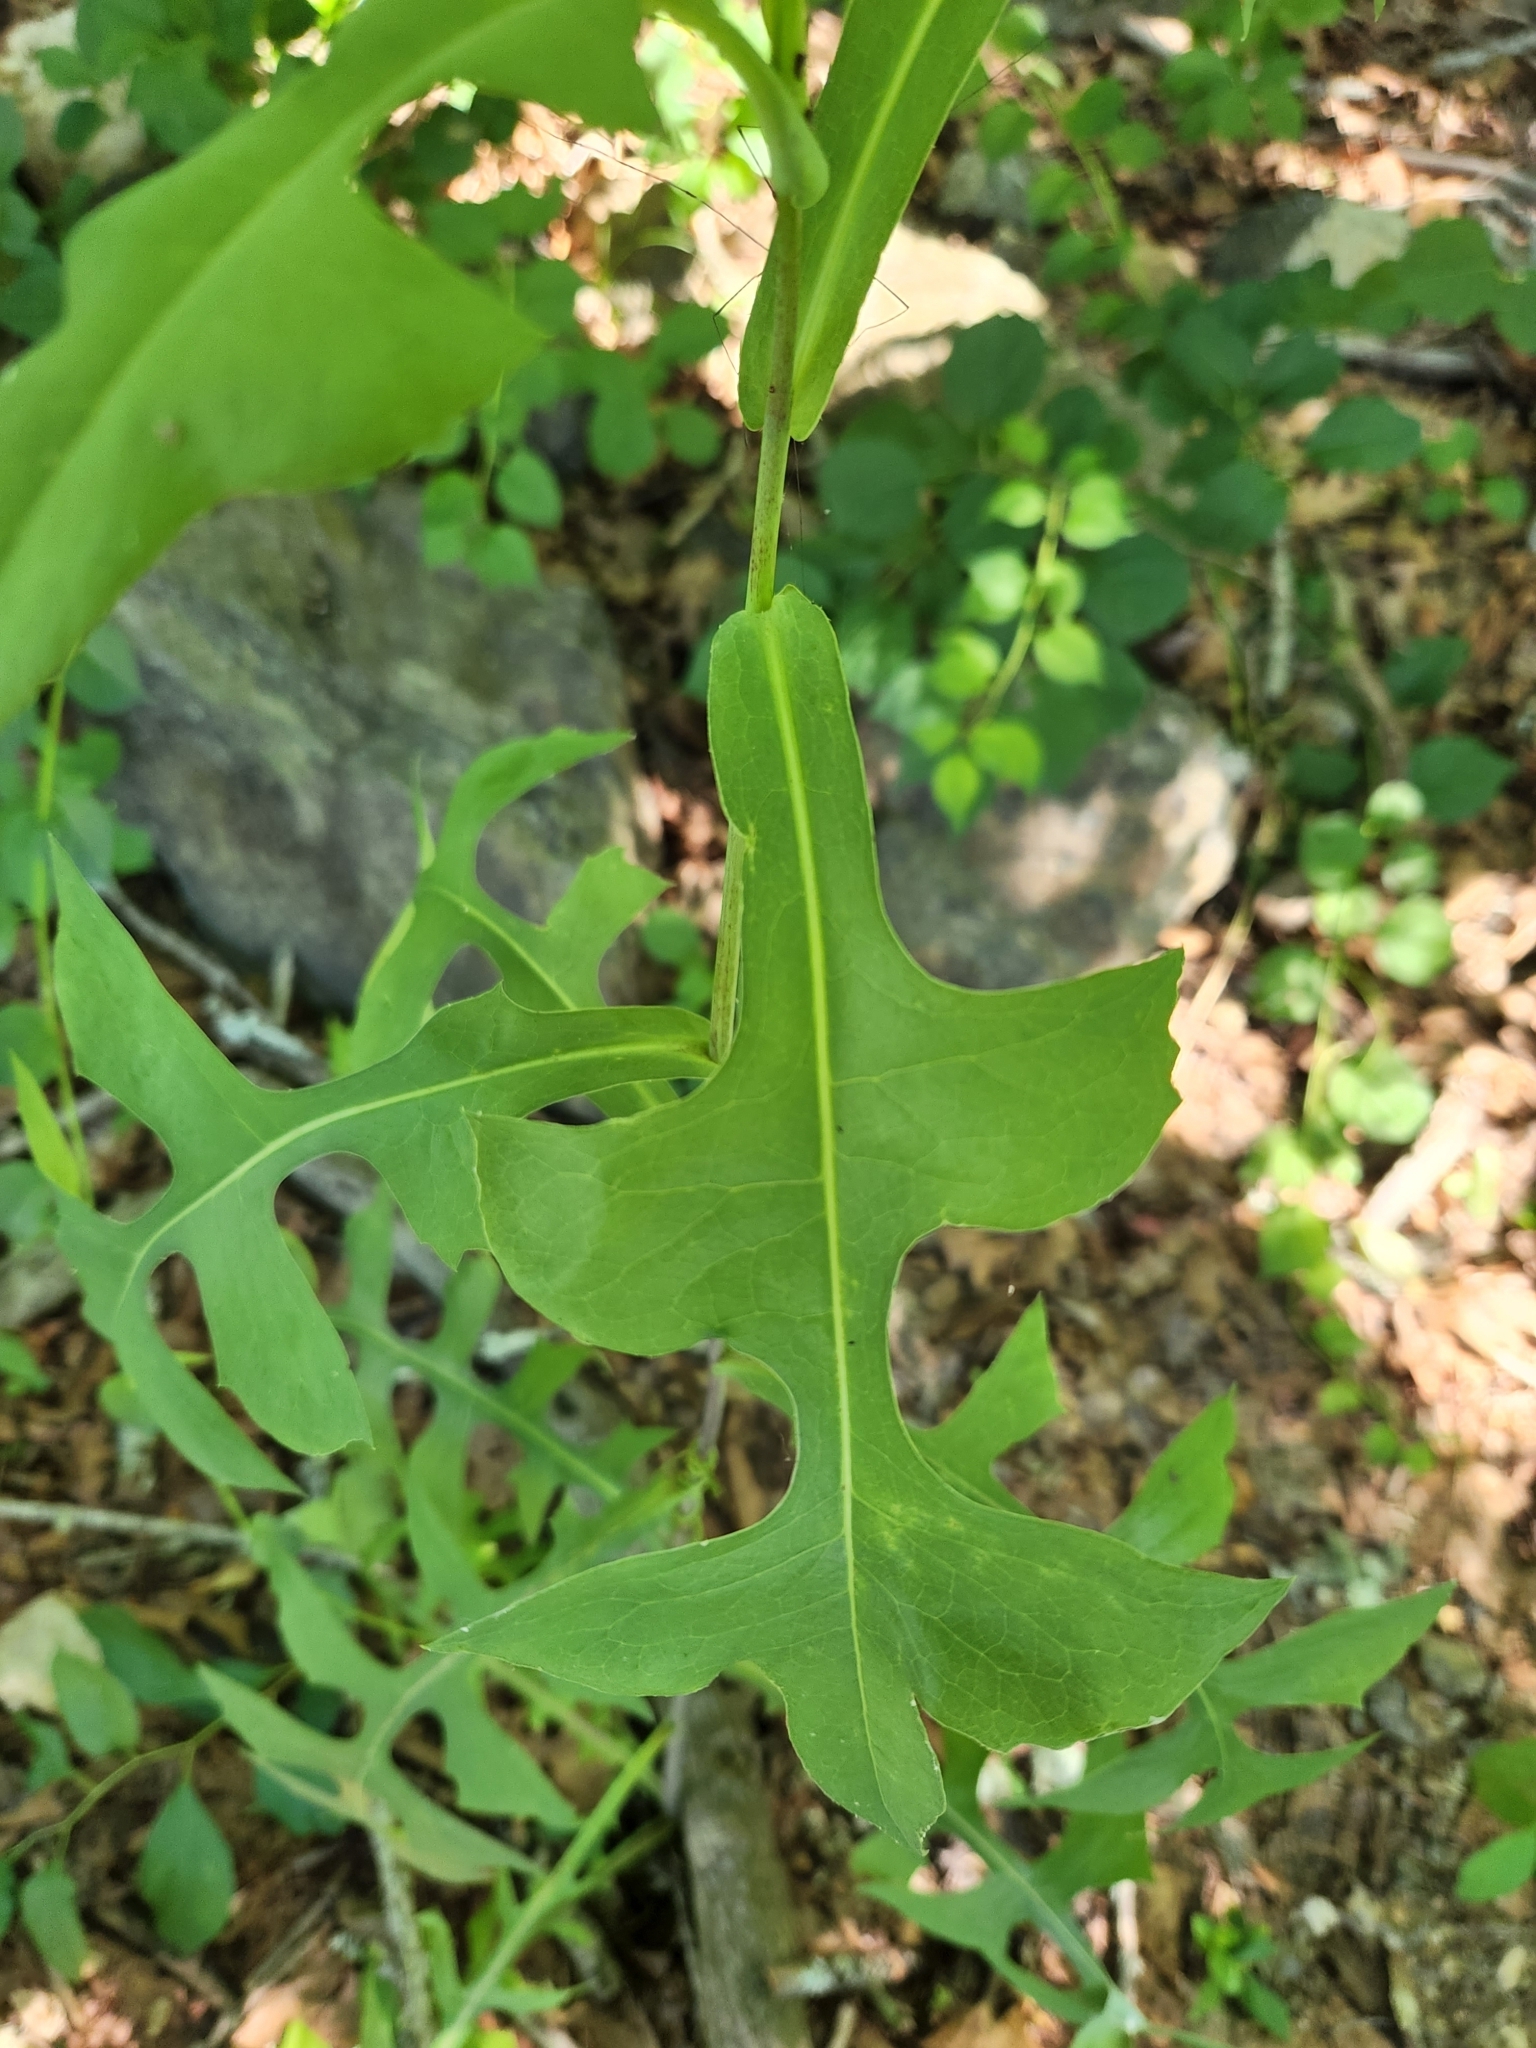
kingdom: Plantae
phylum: Tracheophyta
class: Magnoliopsida
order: Asterales
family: Asteraceae
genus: Lactuca
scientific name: Lactuca canadensis
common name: Canada lettuce
